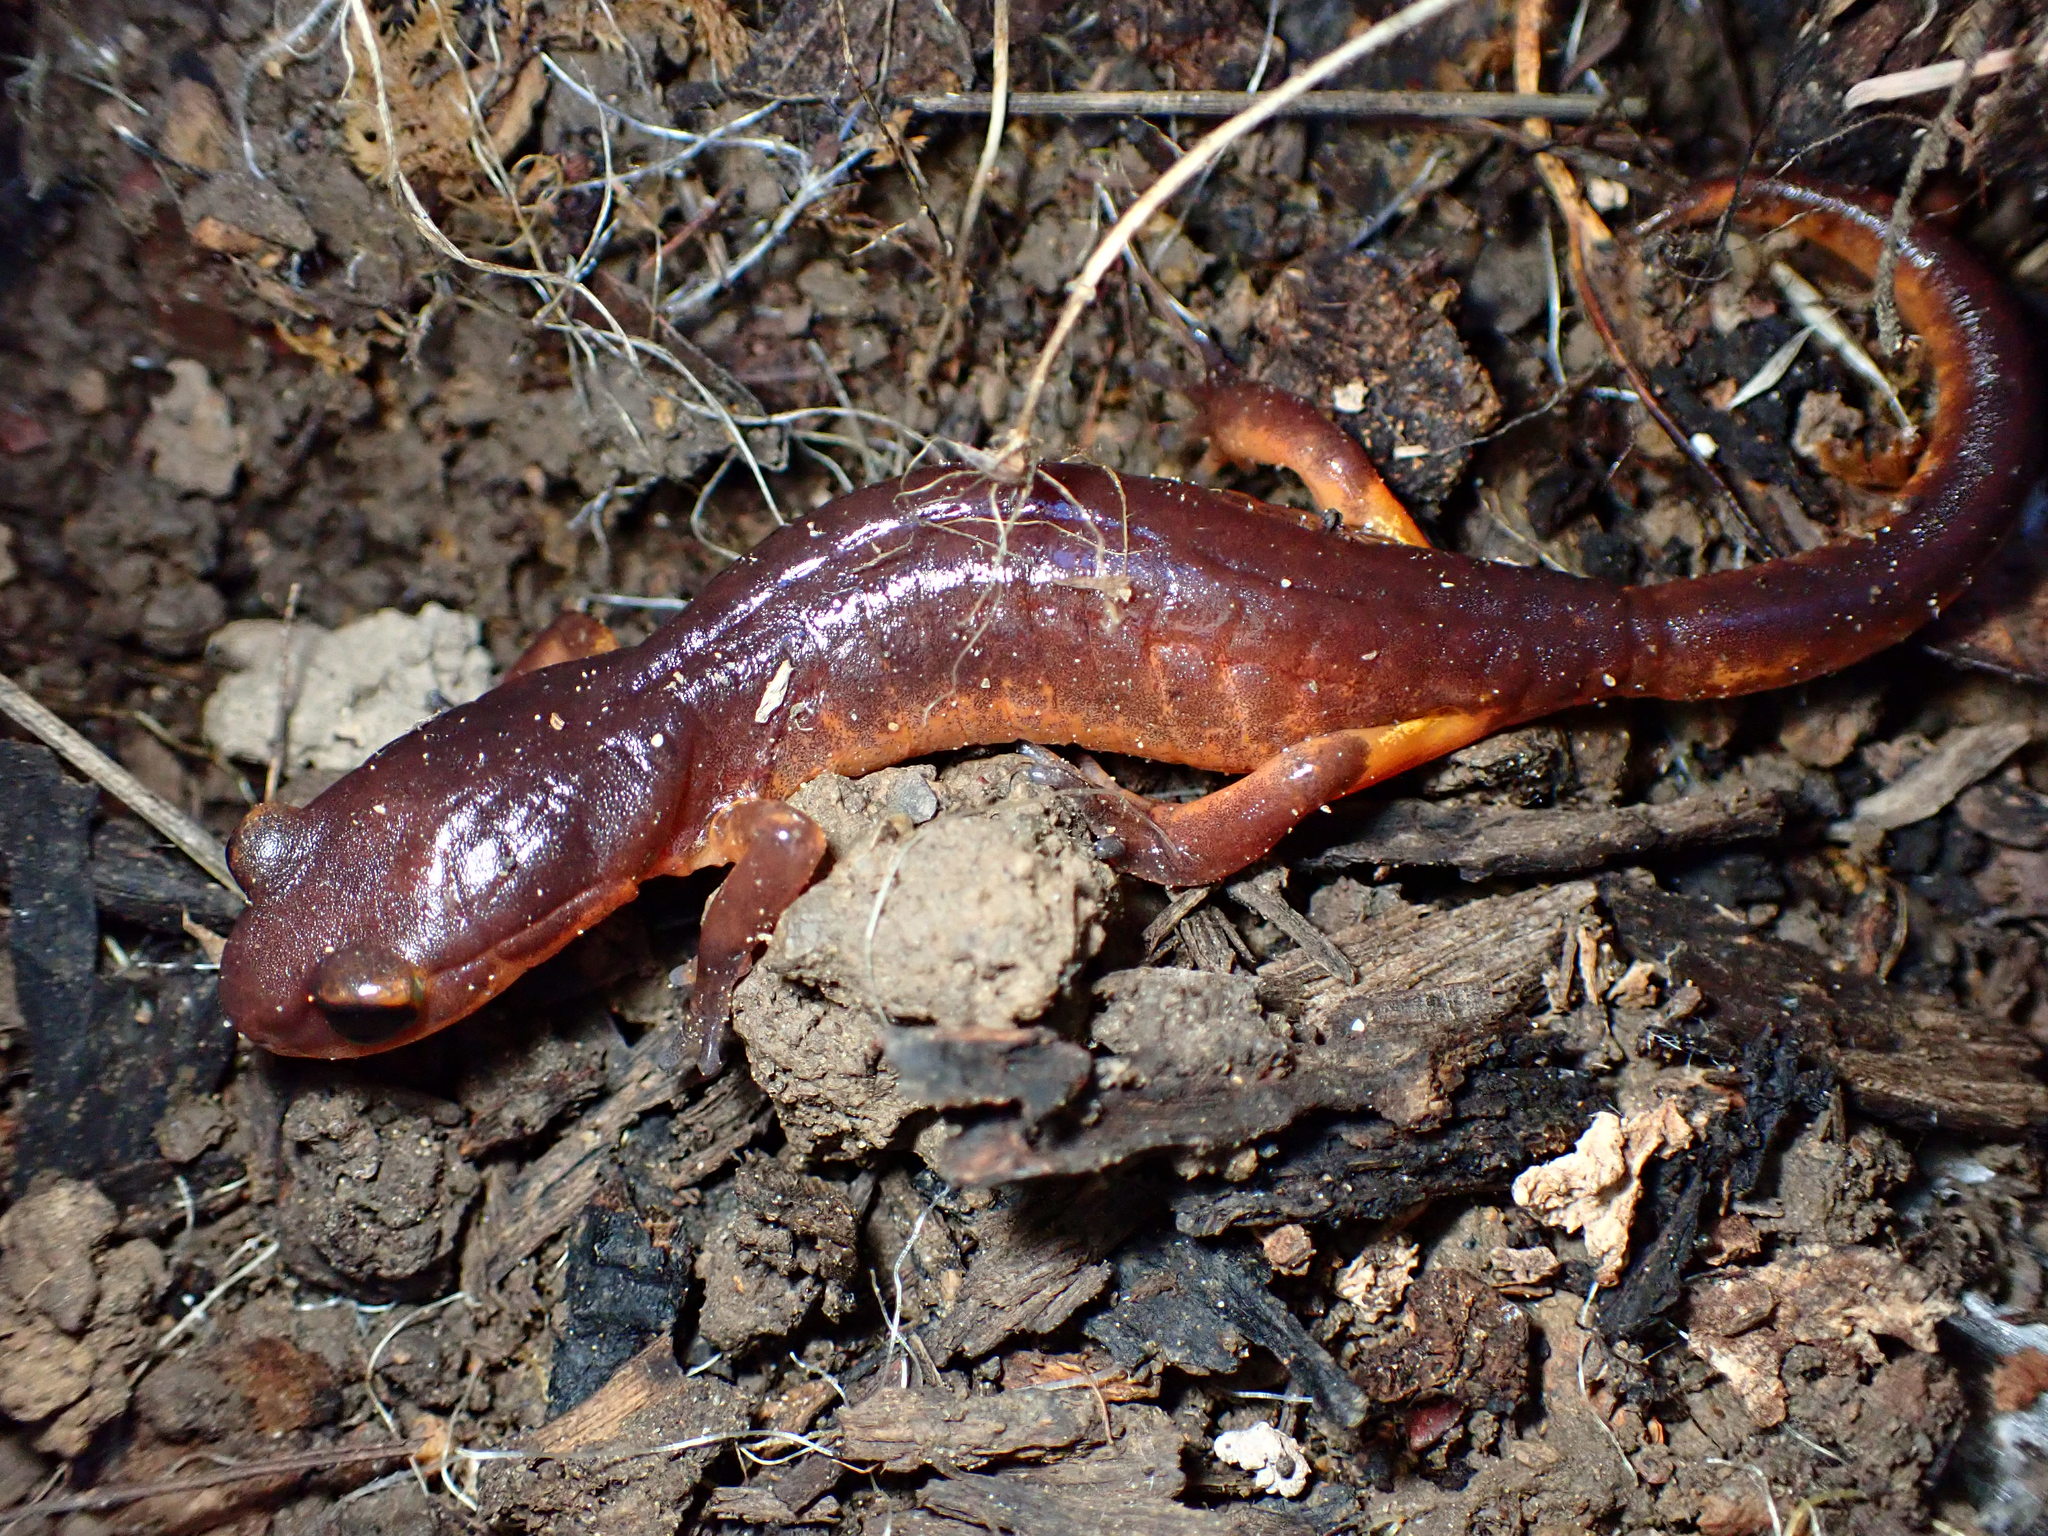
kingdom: Animalia
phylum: Chordata
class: Amphibia
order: Caudata
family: Plethodontidae
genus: Ensatina
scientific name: Ensatina eschscholtzii
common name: Ensatina
